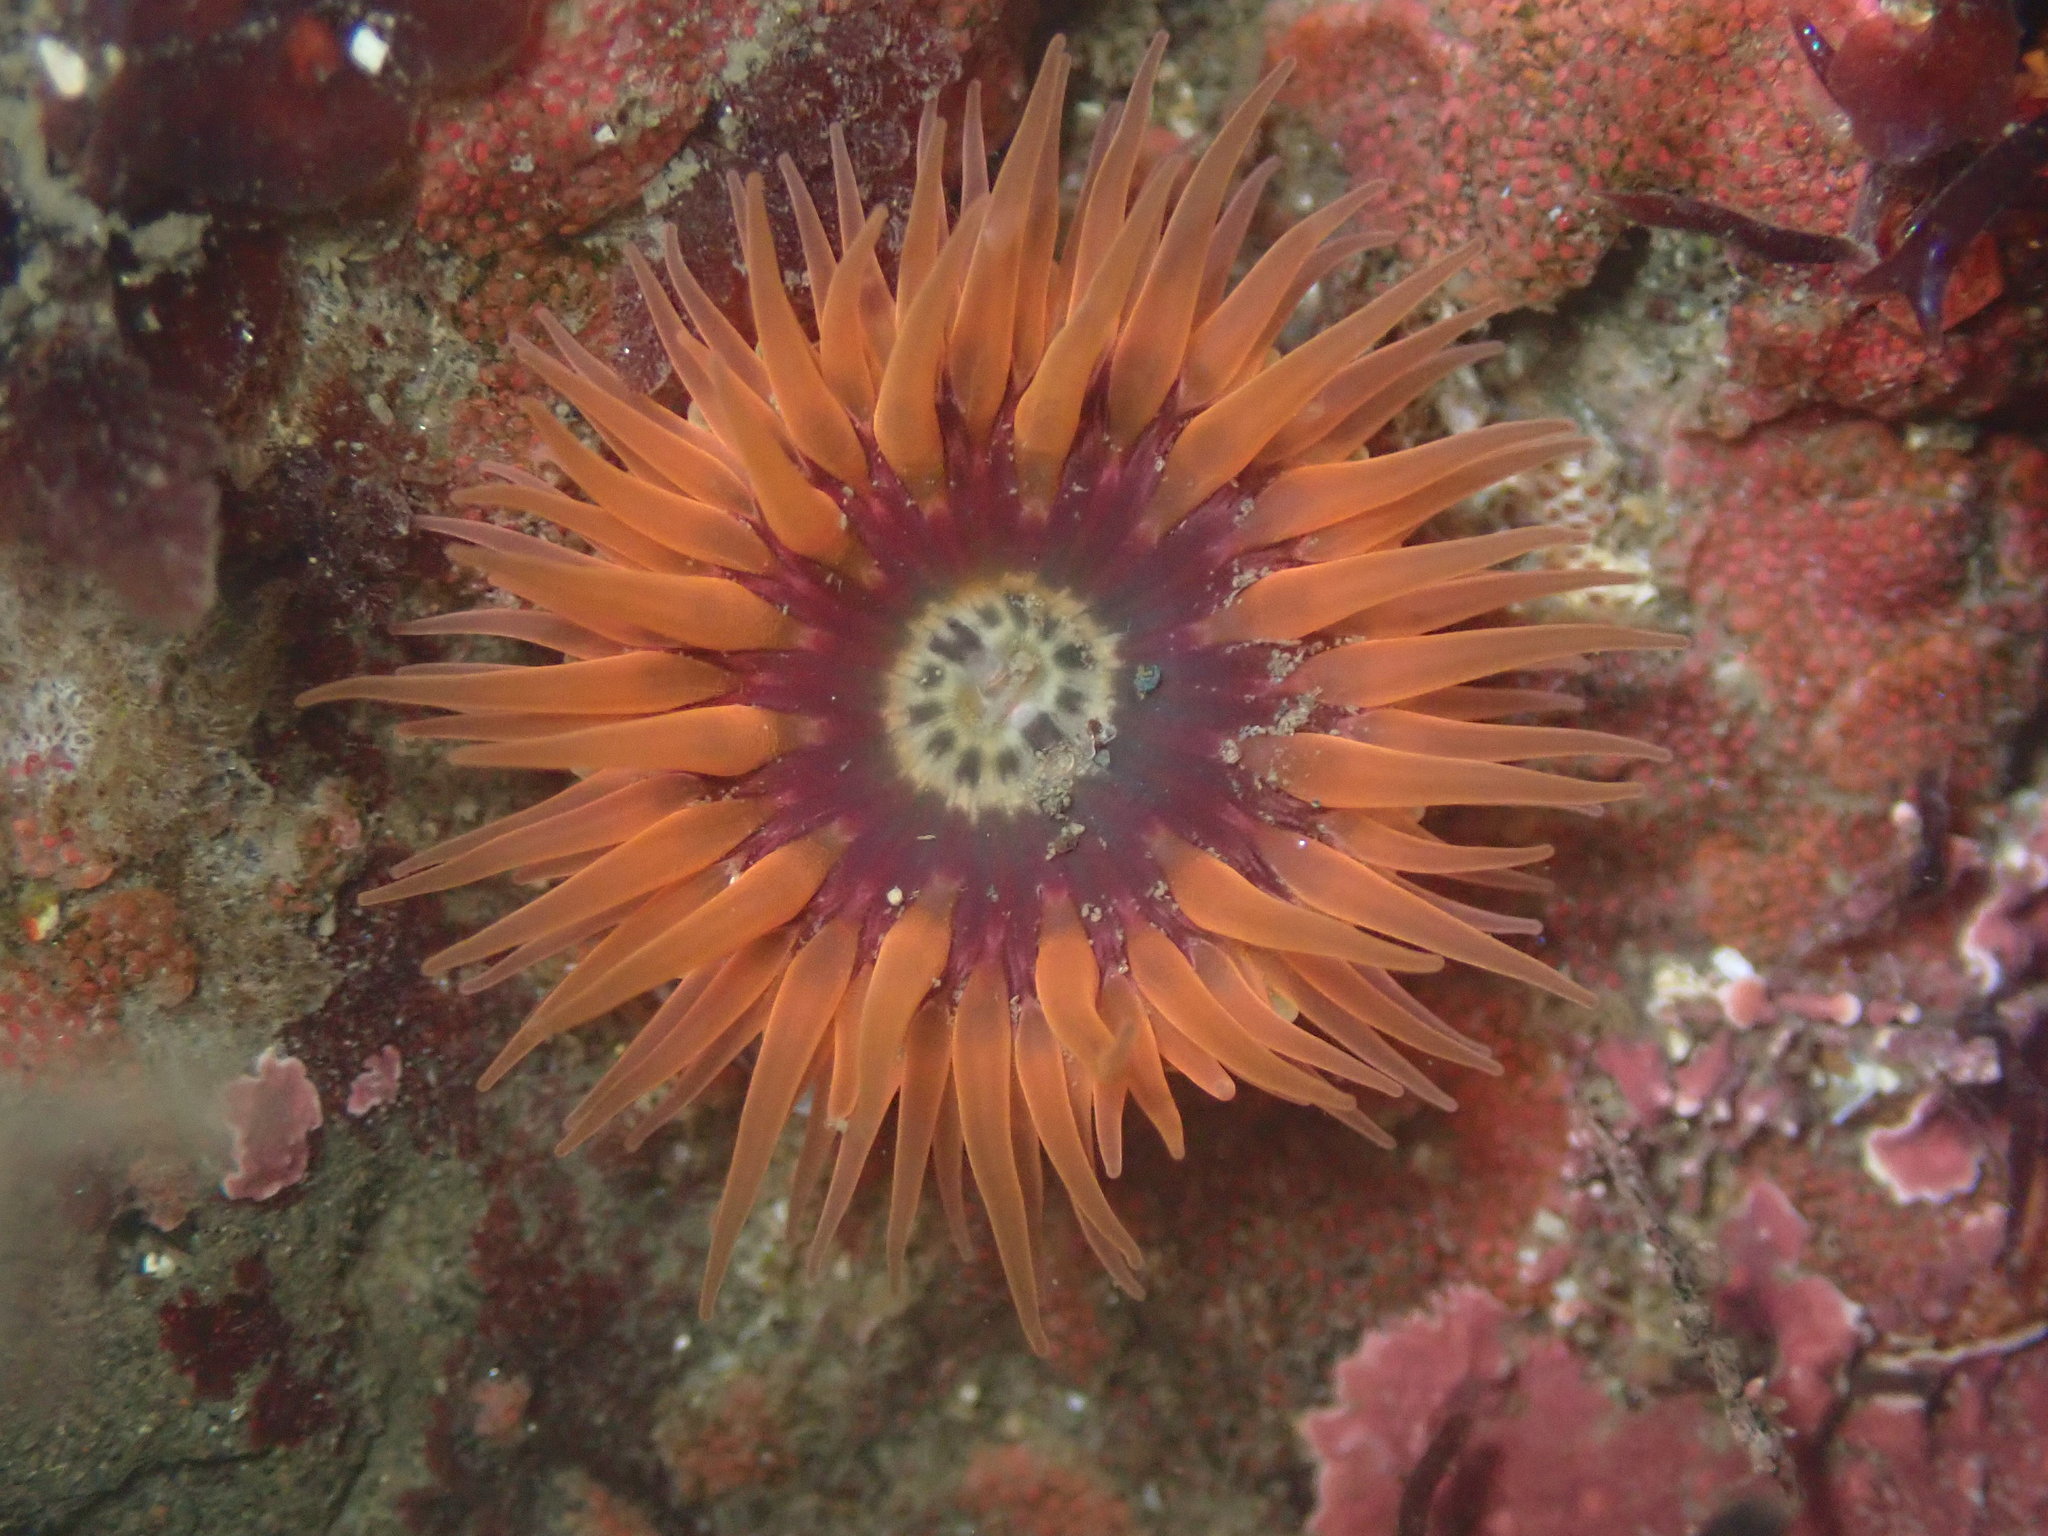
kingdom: Animalia
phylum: Cnidaria
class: Anthozoa
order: Actiniaria
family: Actiniidae
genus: Anthopleura
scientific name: Anthopleura artemisia
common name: Buried sea anemone
